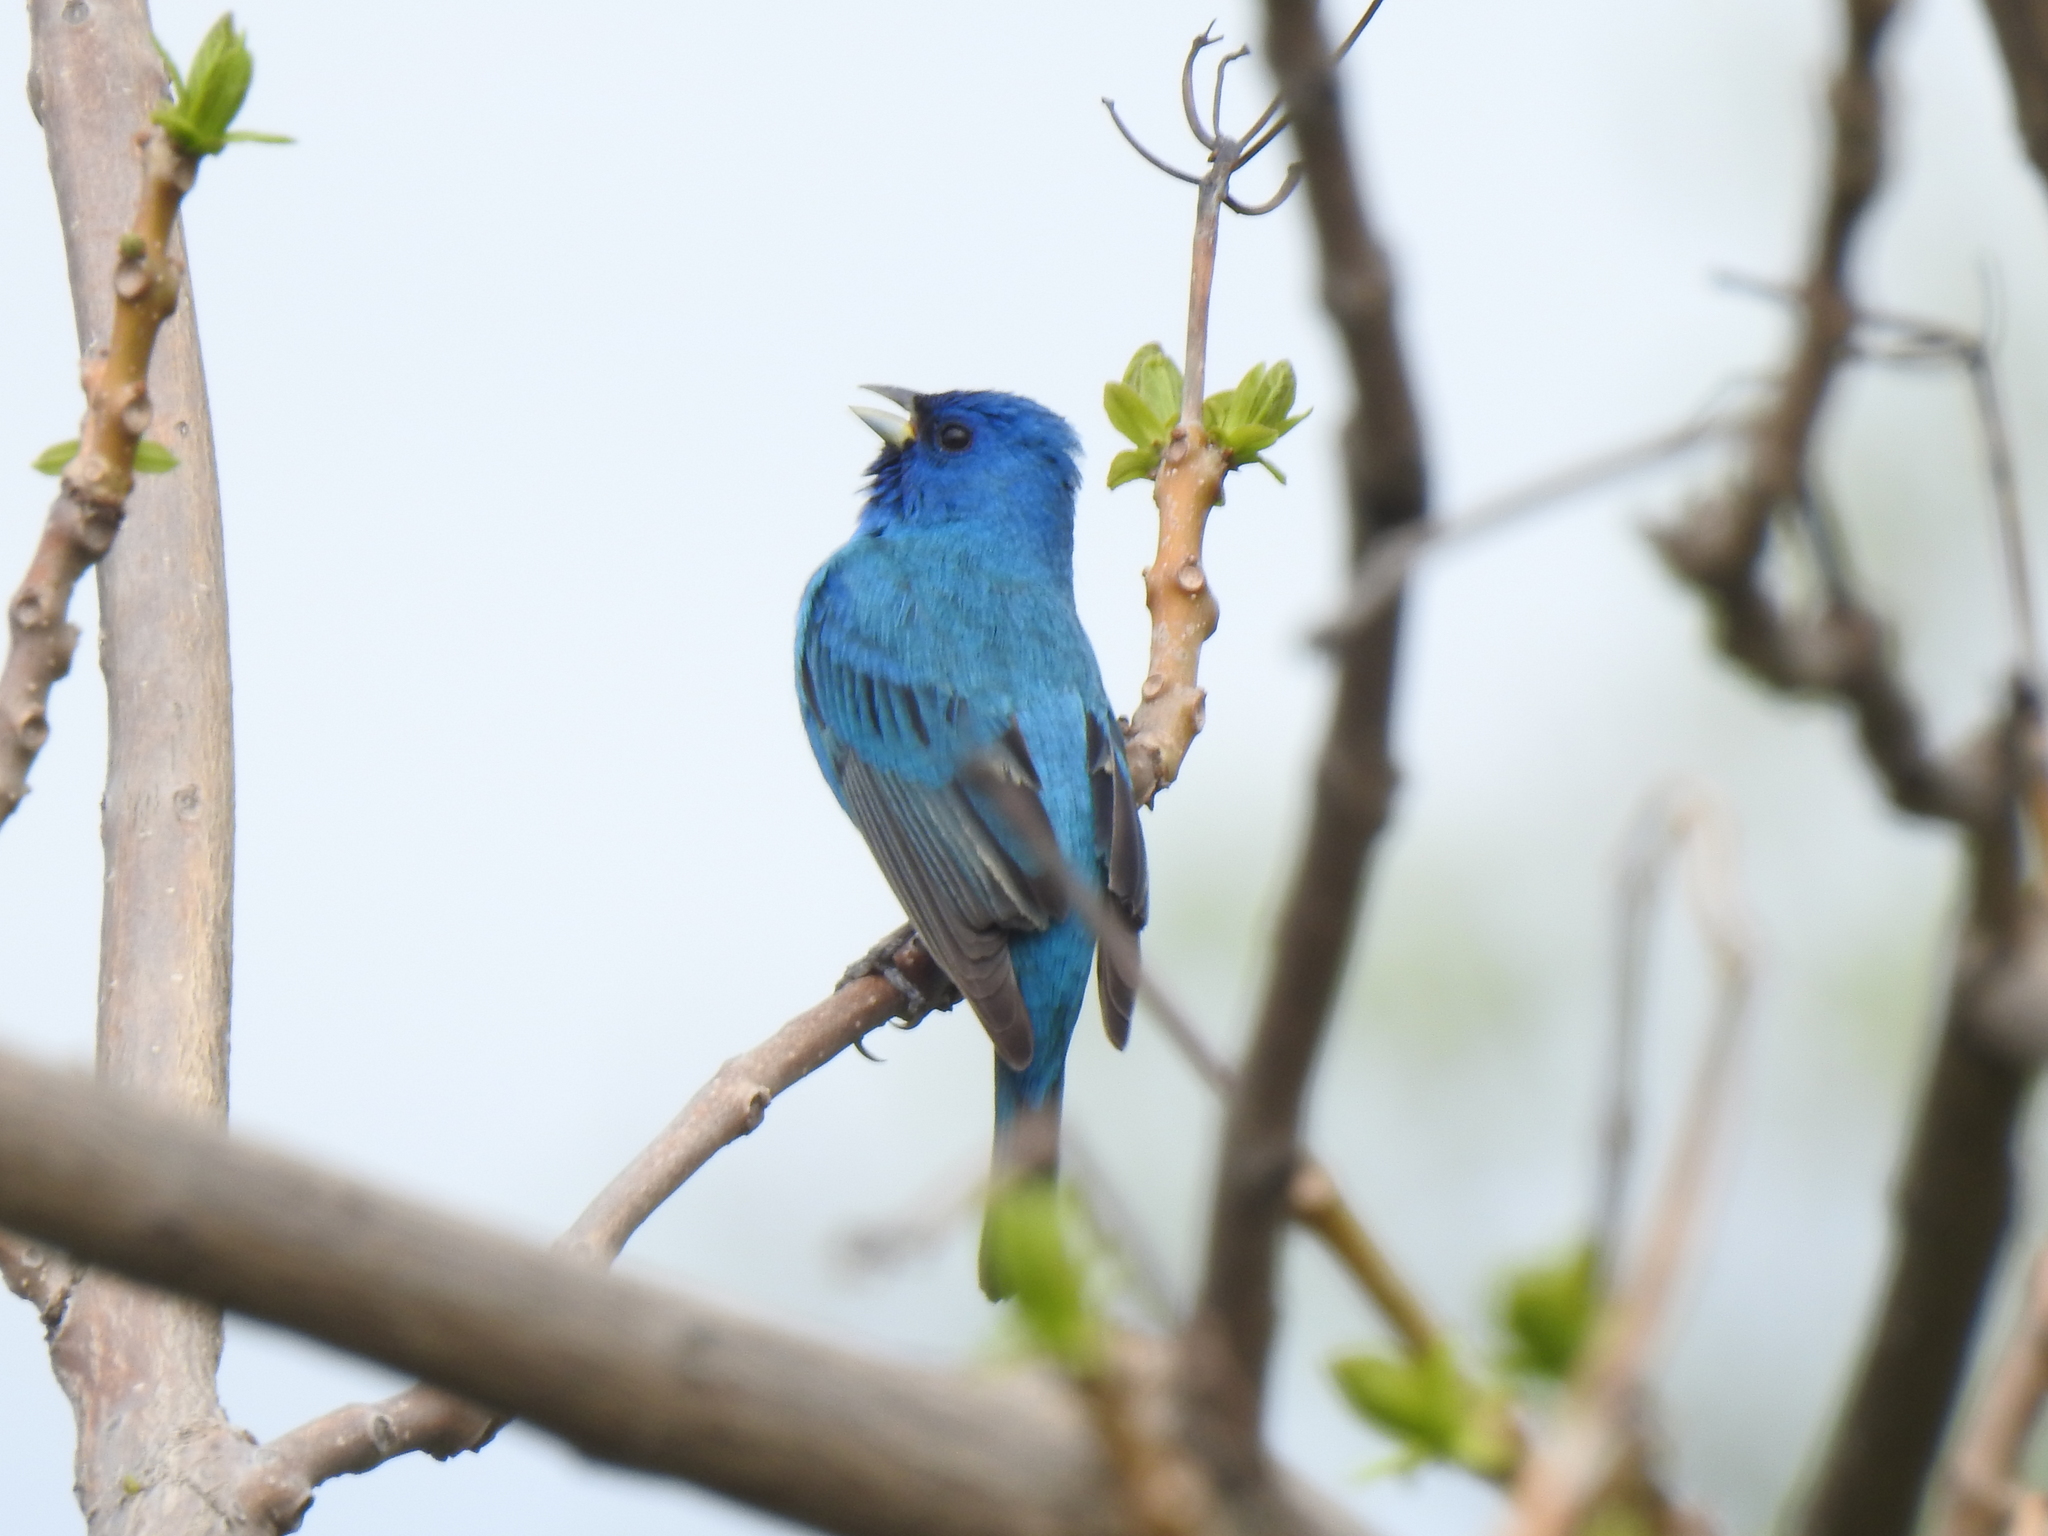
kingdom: Animalia
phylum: Chordata
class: Aves
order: Passeriformes
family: Cardinalidae
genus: Passerina
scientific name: Passerina cyanea
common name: Indigo bunting
